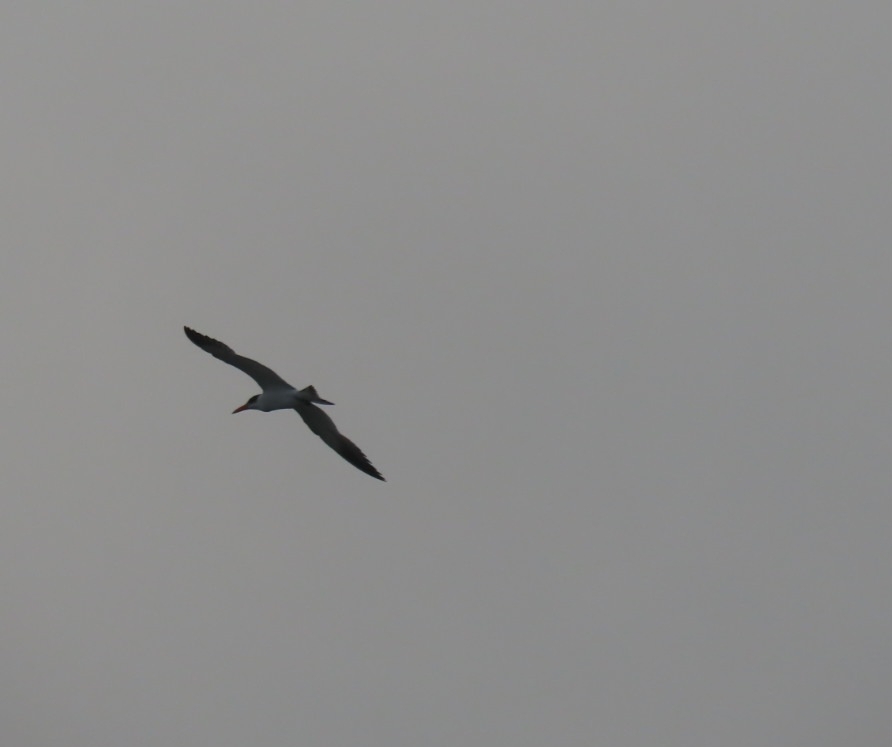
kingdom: Animalia
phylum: Chordata
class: Aves
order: Charadriiformes
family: Laridae
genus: Hydroprogne
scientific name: Hydroprogne caspia
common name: Caspian tern
